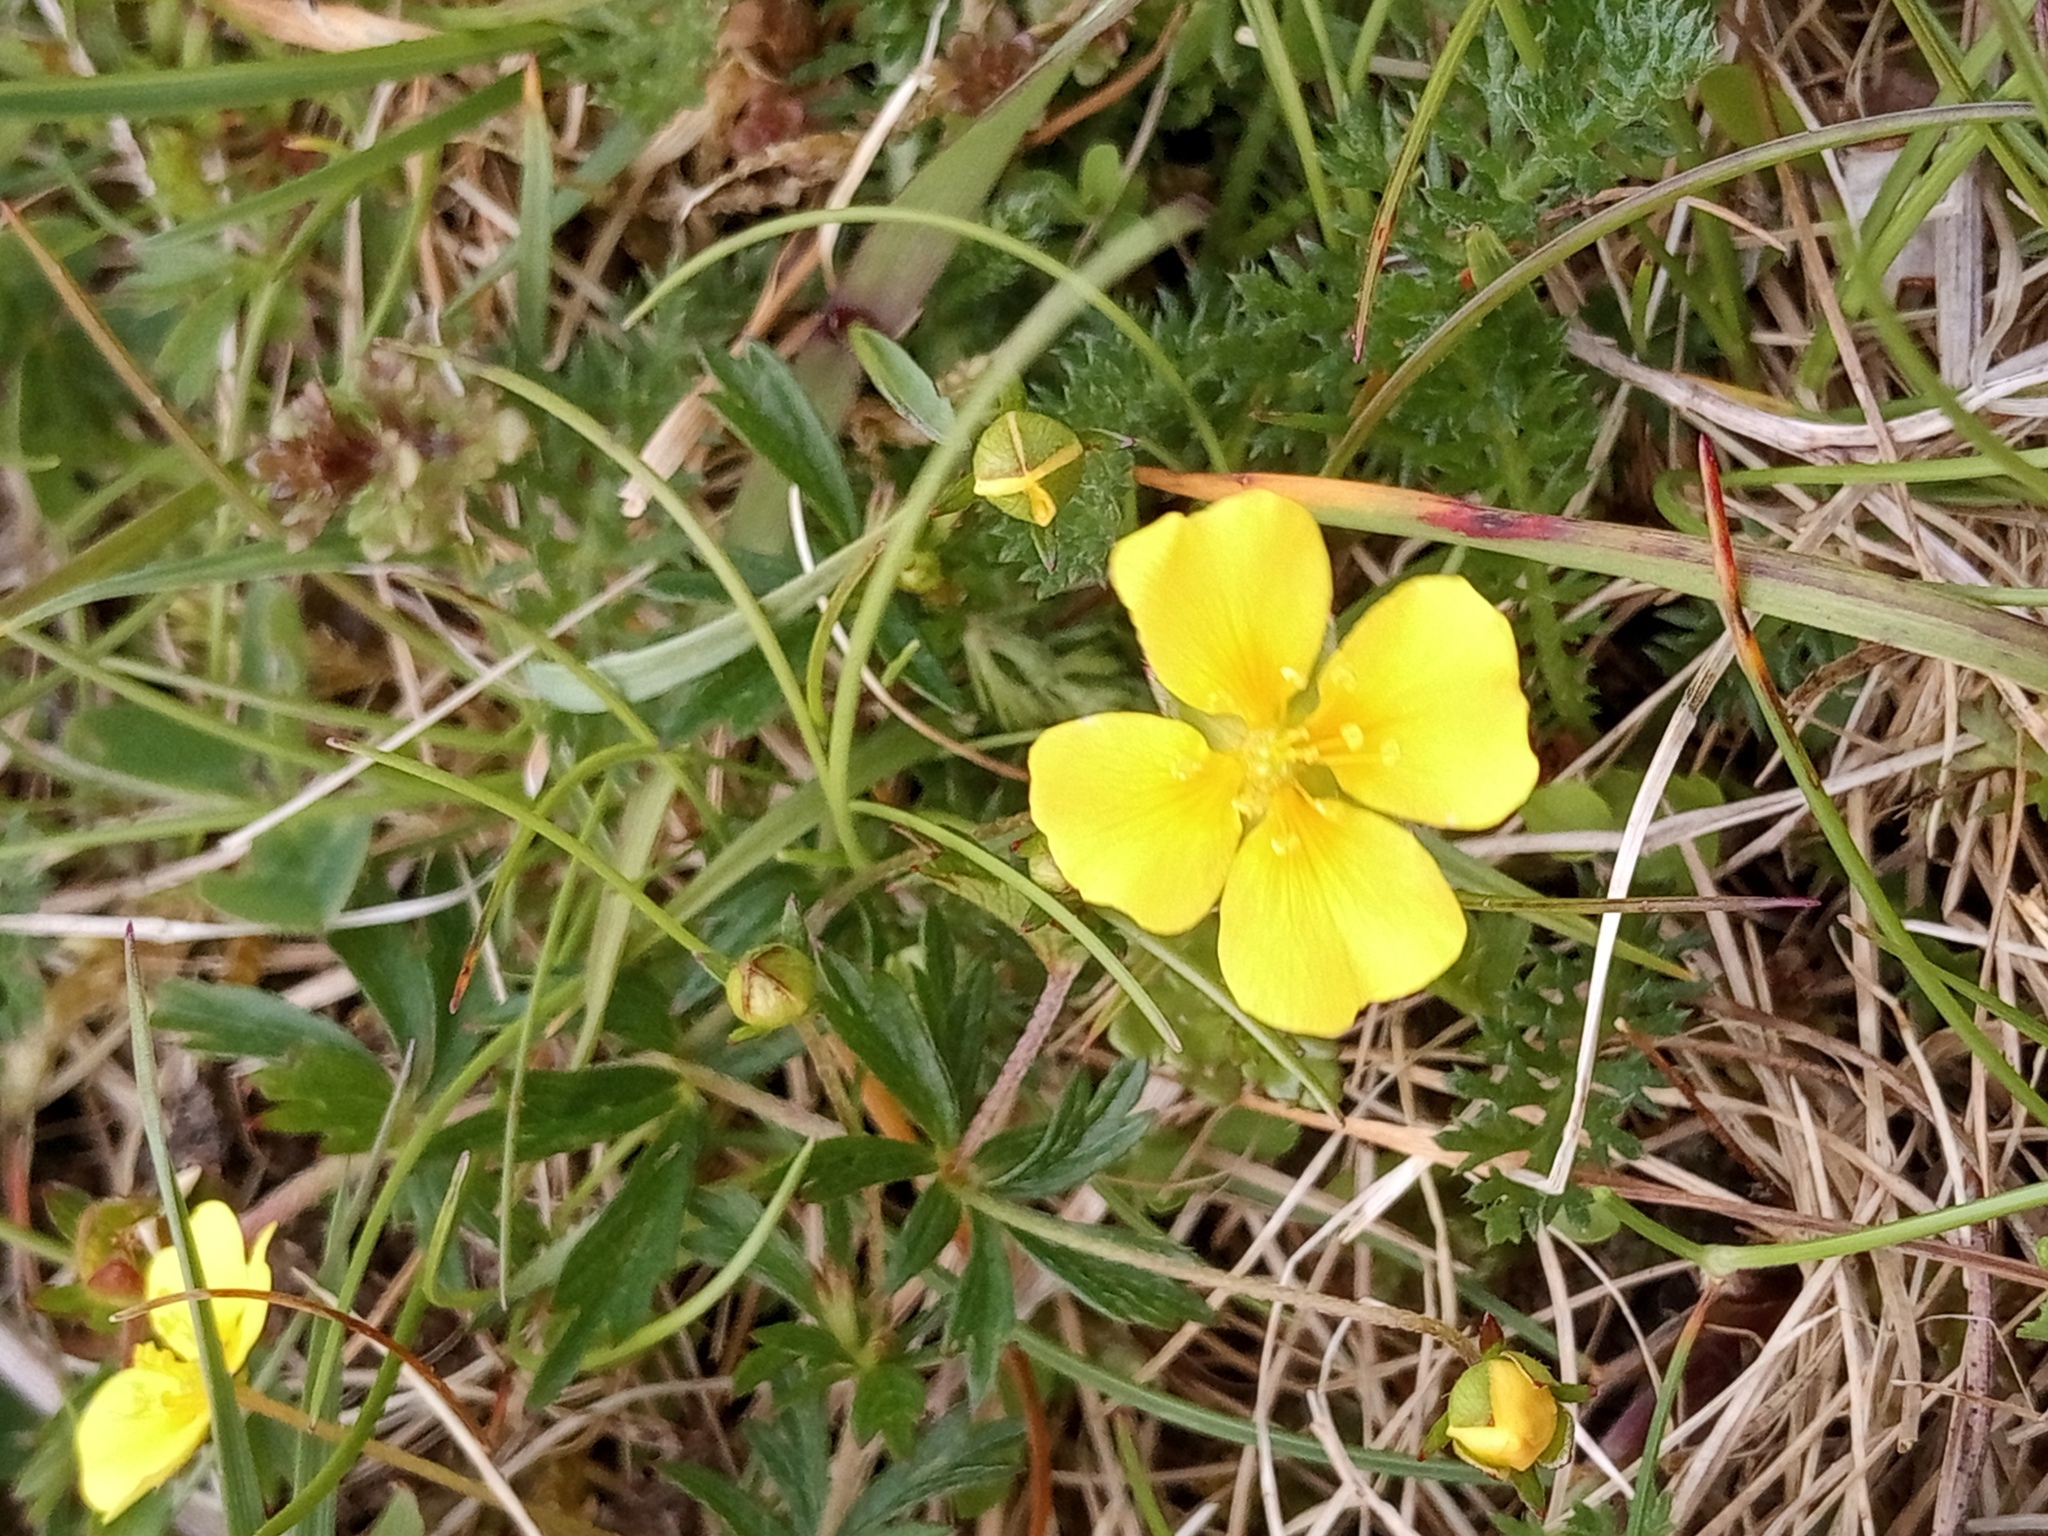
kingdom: Plantae
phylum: Tracheophyta
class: Magnoliopsida
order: Rosales
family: Rosaceae
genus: Potentilla
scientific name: Potentilla erecta
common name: Tormentil
